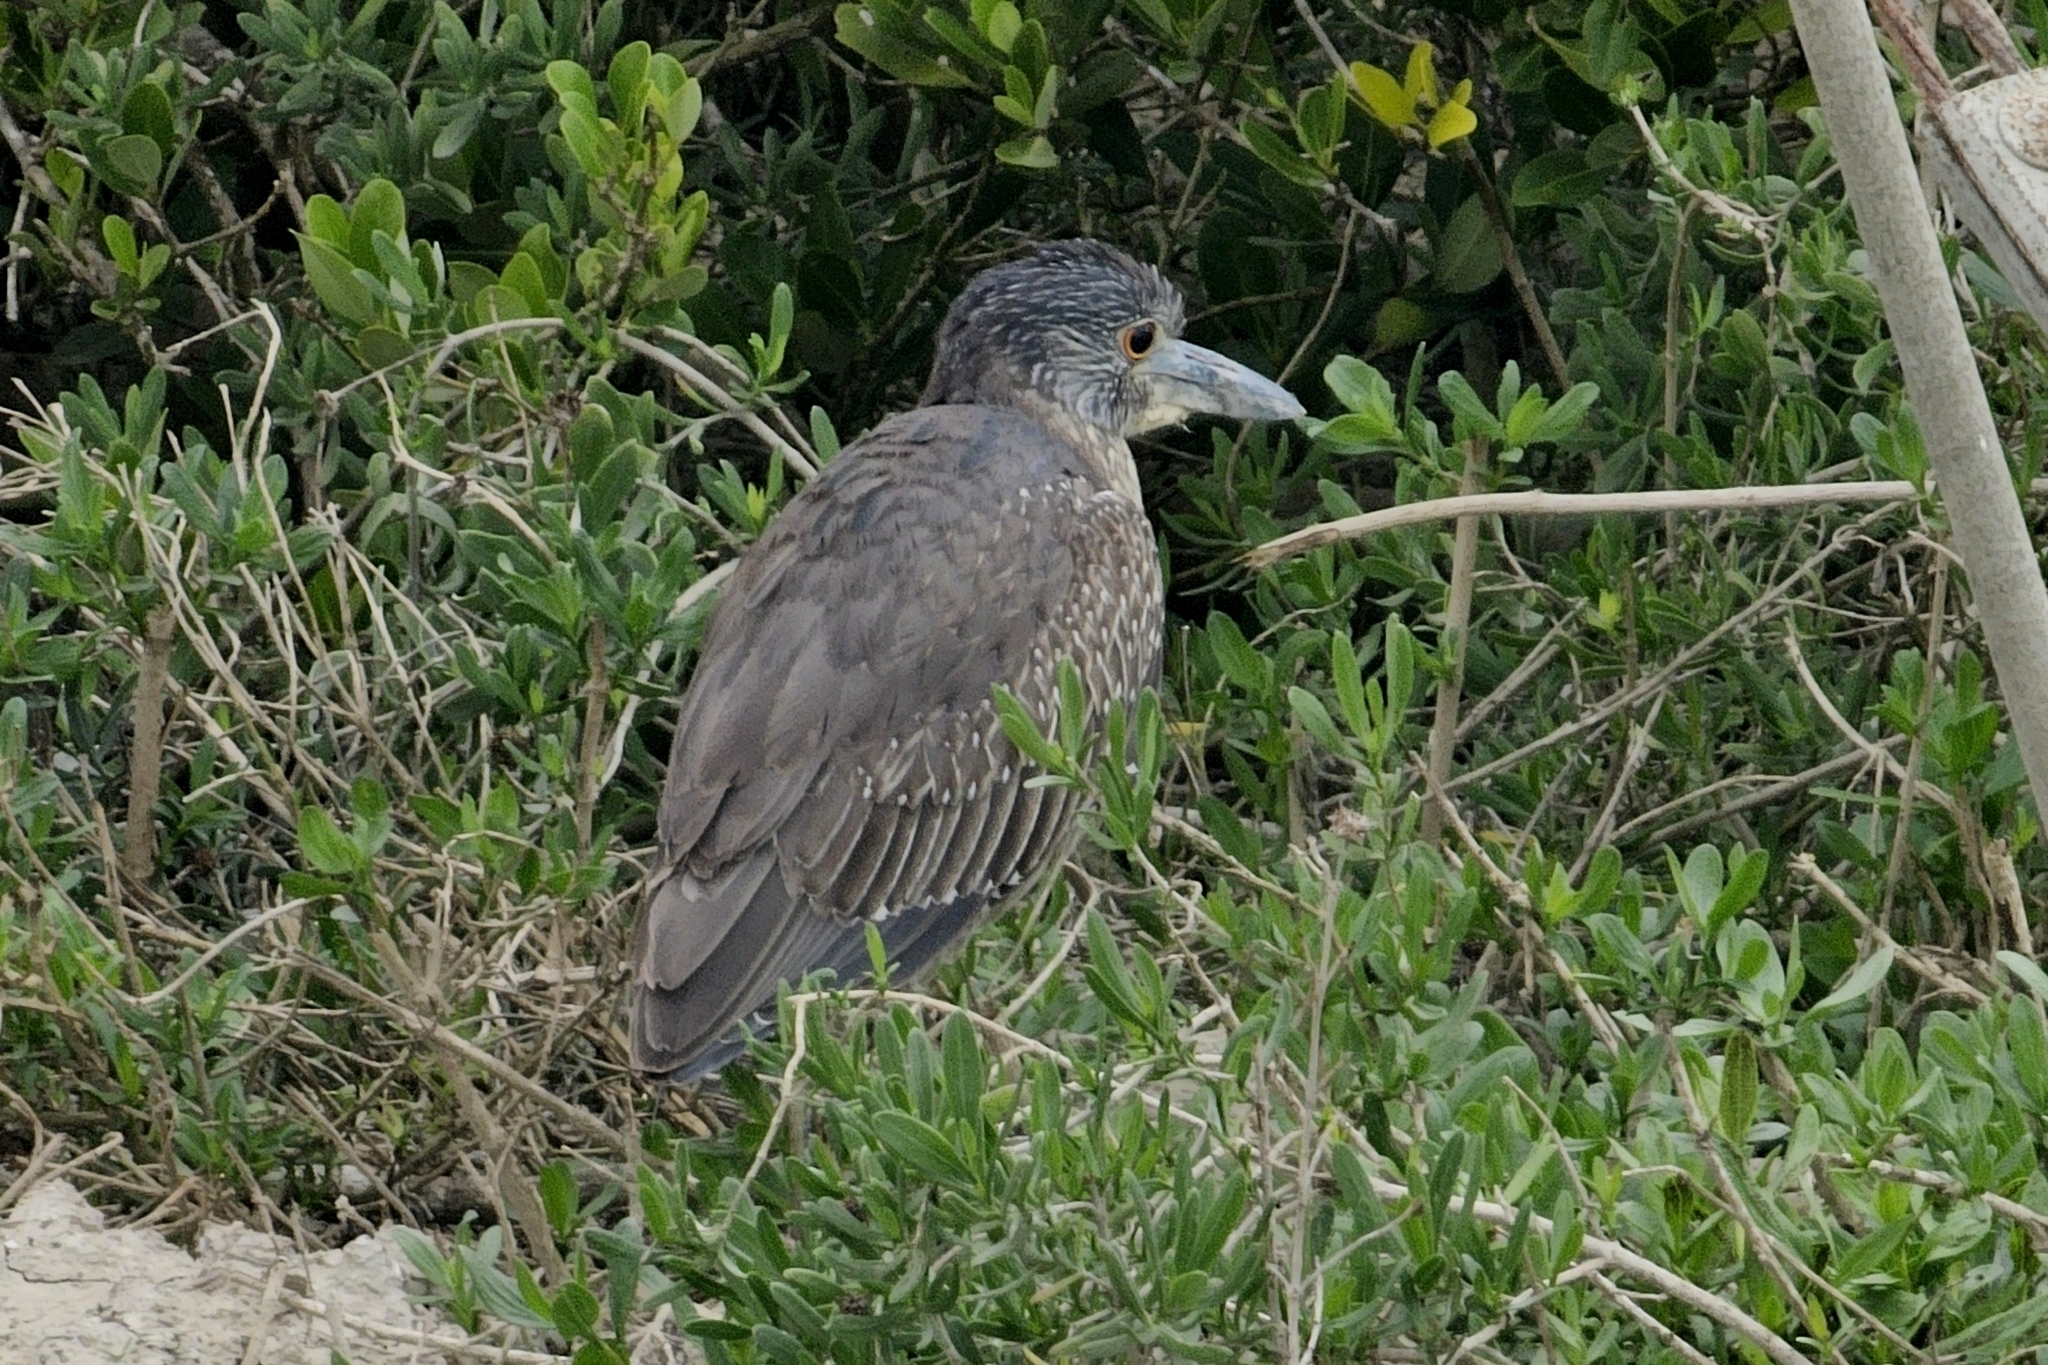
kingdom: Animalia
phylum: Chordata
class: Aves
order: Pelecaniformes
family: Ardeidae
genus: Nyctanassa
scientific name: Nyctanassa violacea
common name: Yellow-crowned night heron
